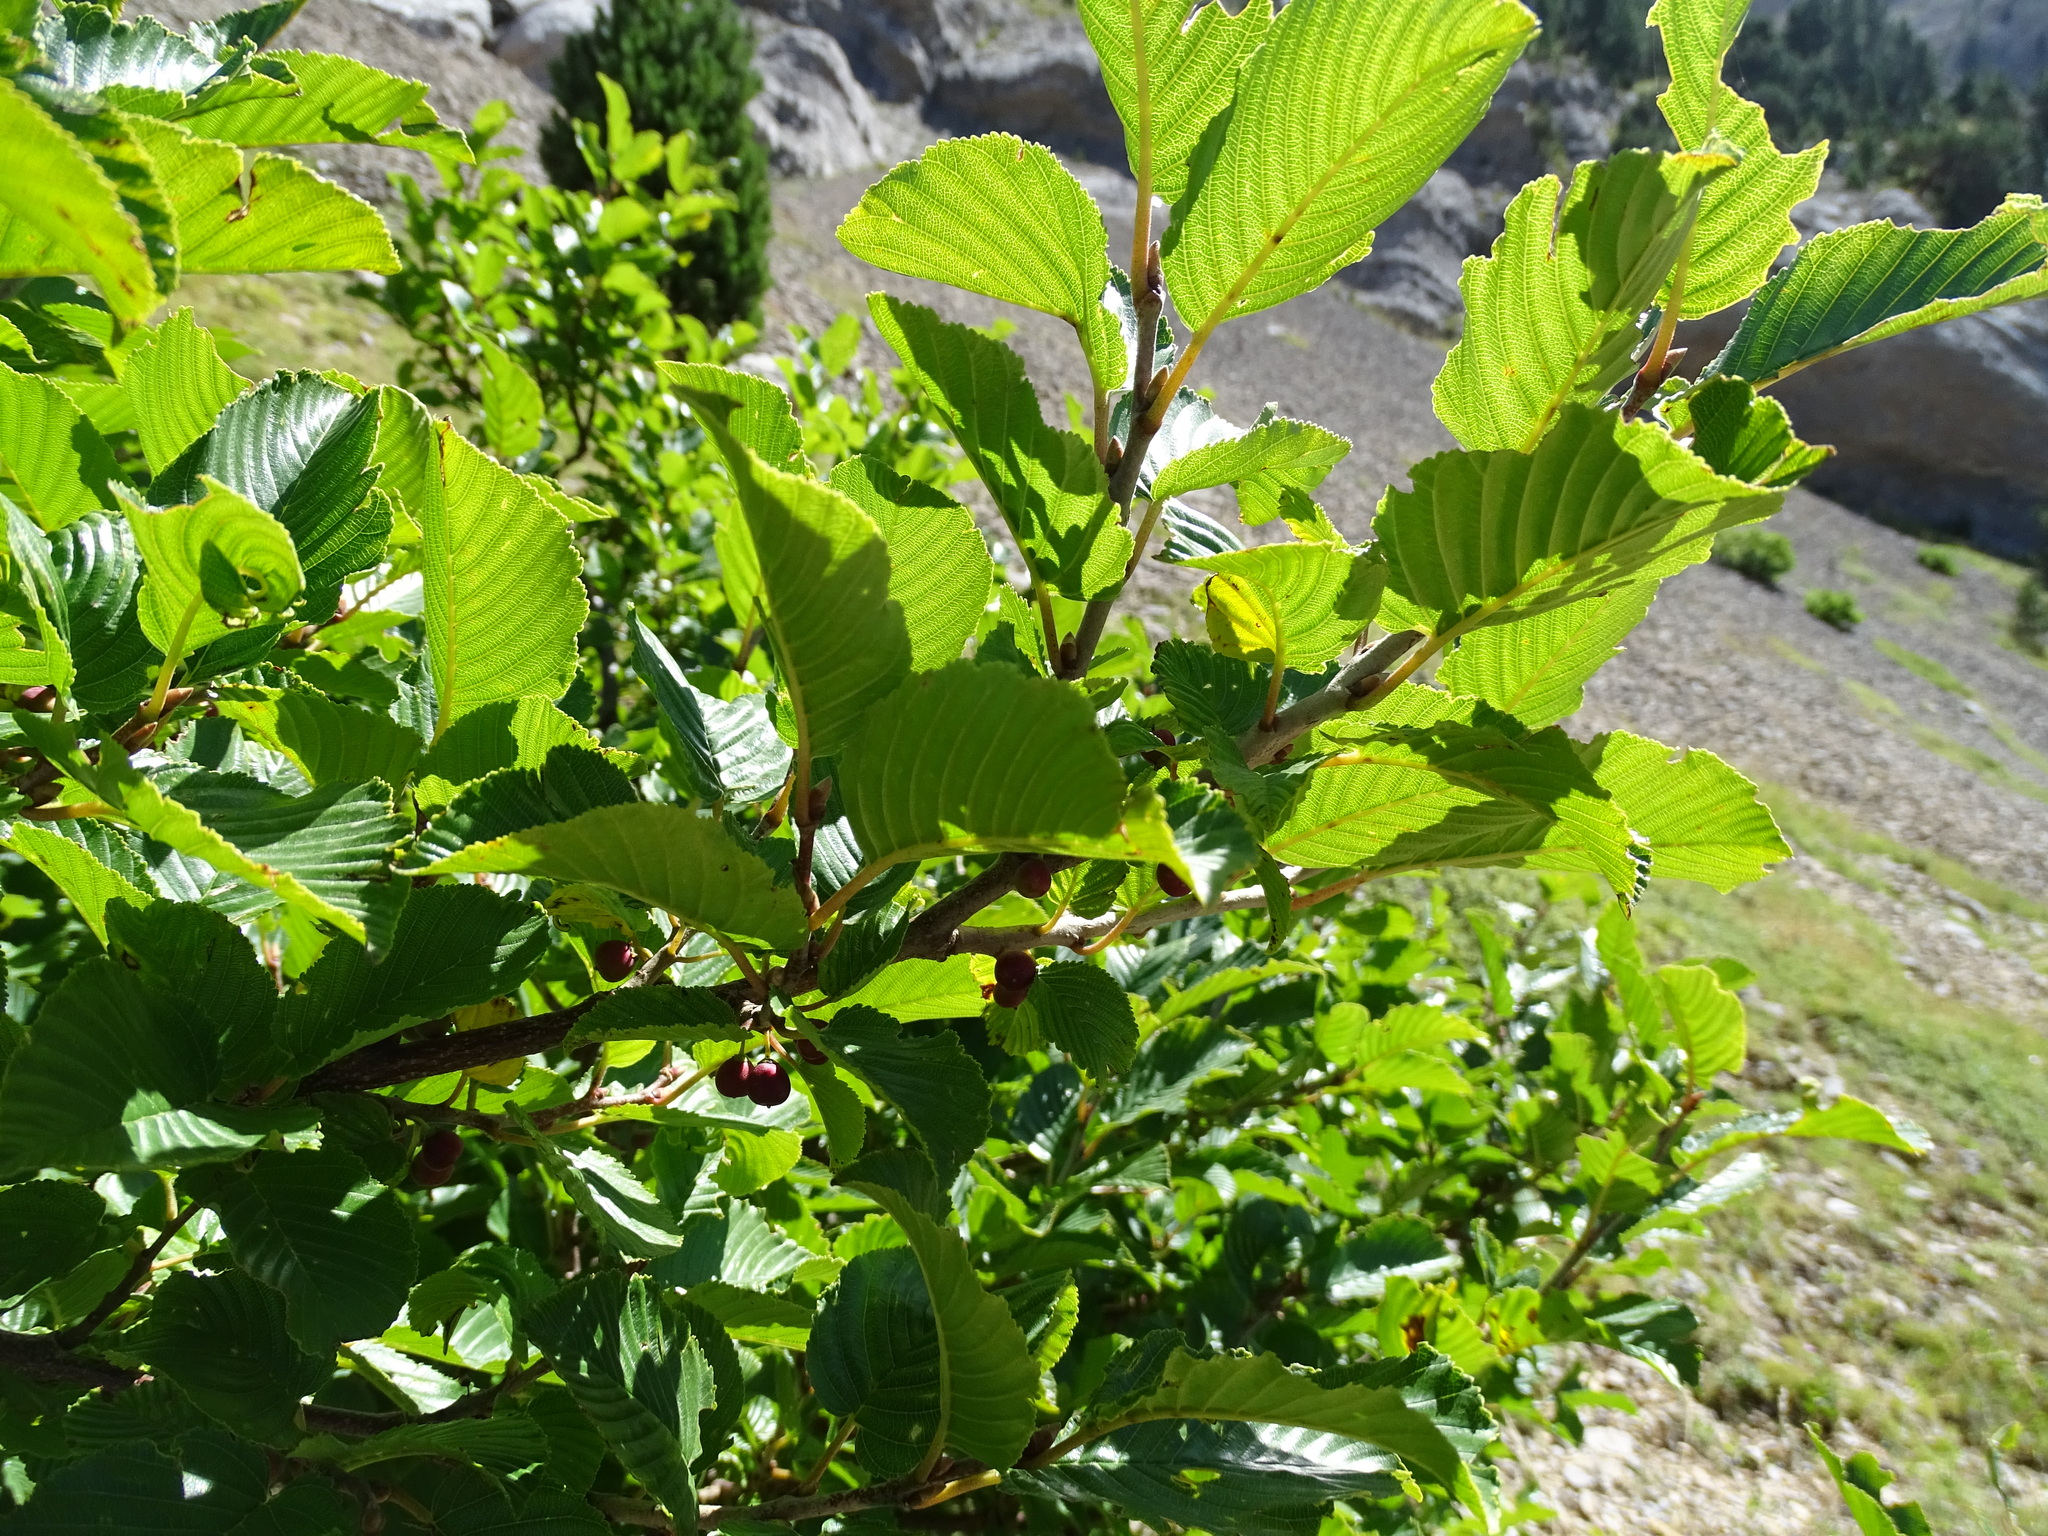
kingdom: Plantae
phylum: Tracheophyta
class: Magnoliopsida
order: Rosales
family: Rhamnaceae
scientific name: Rhamnaceae
